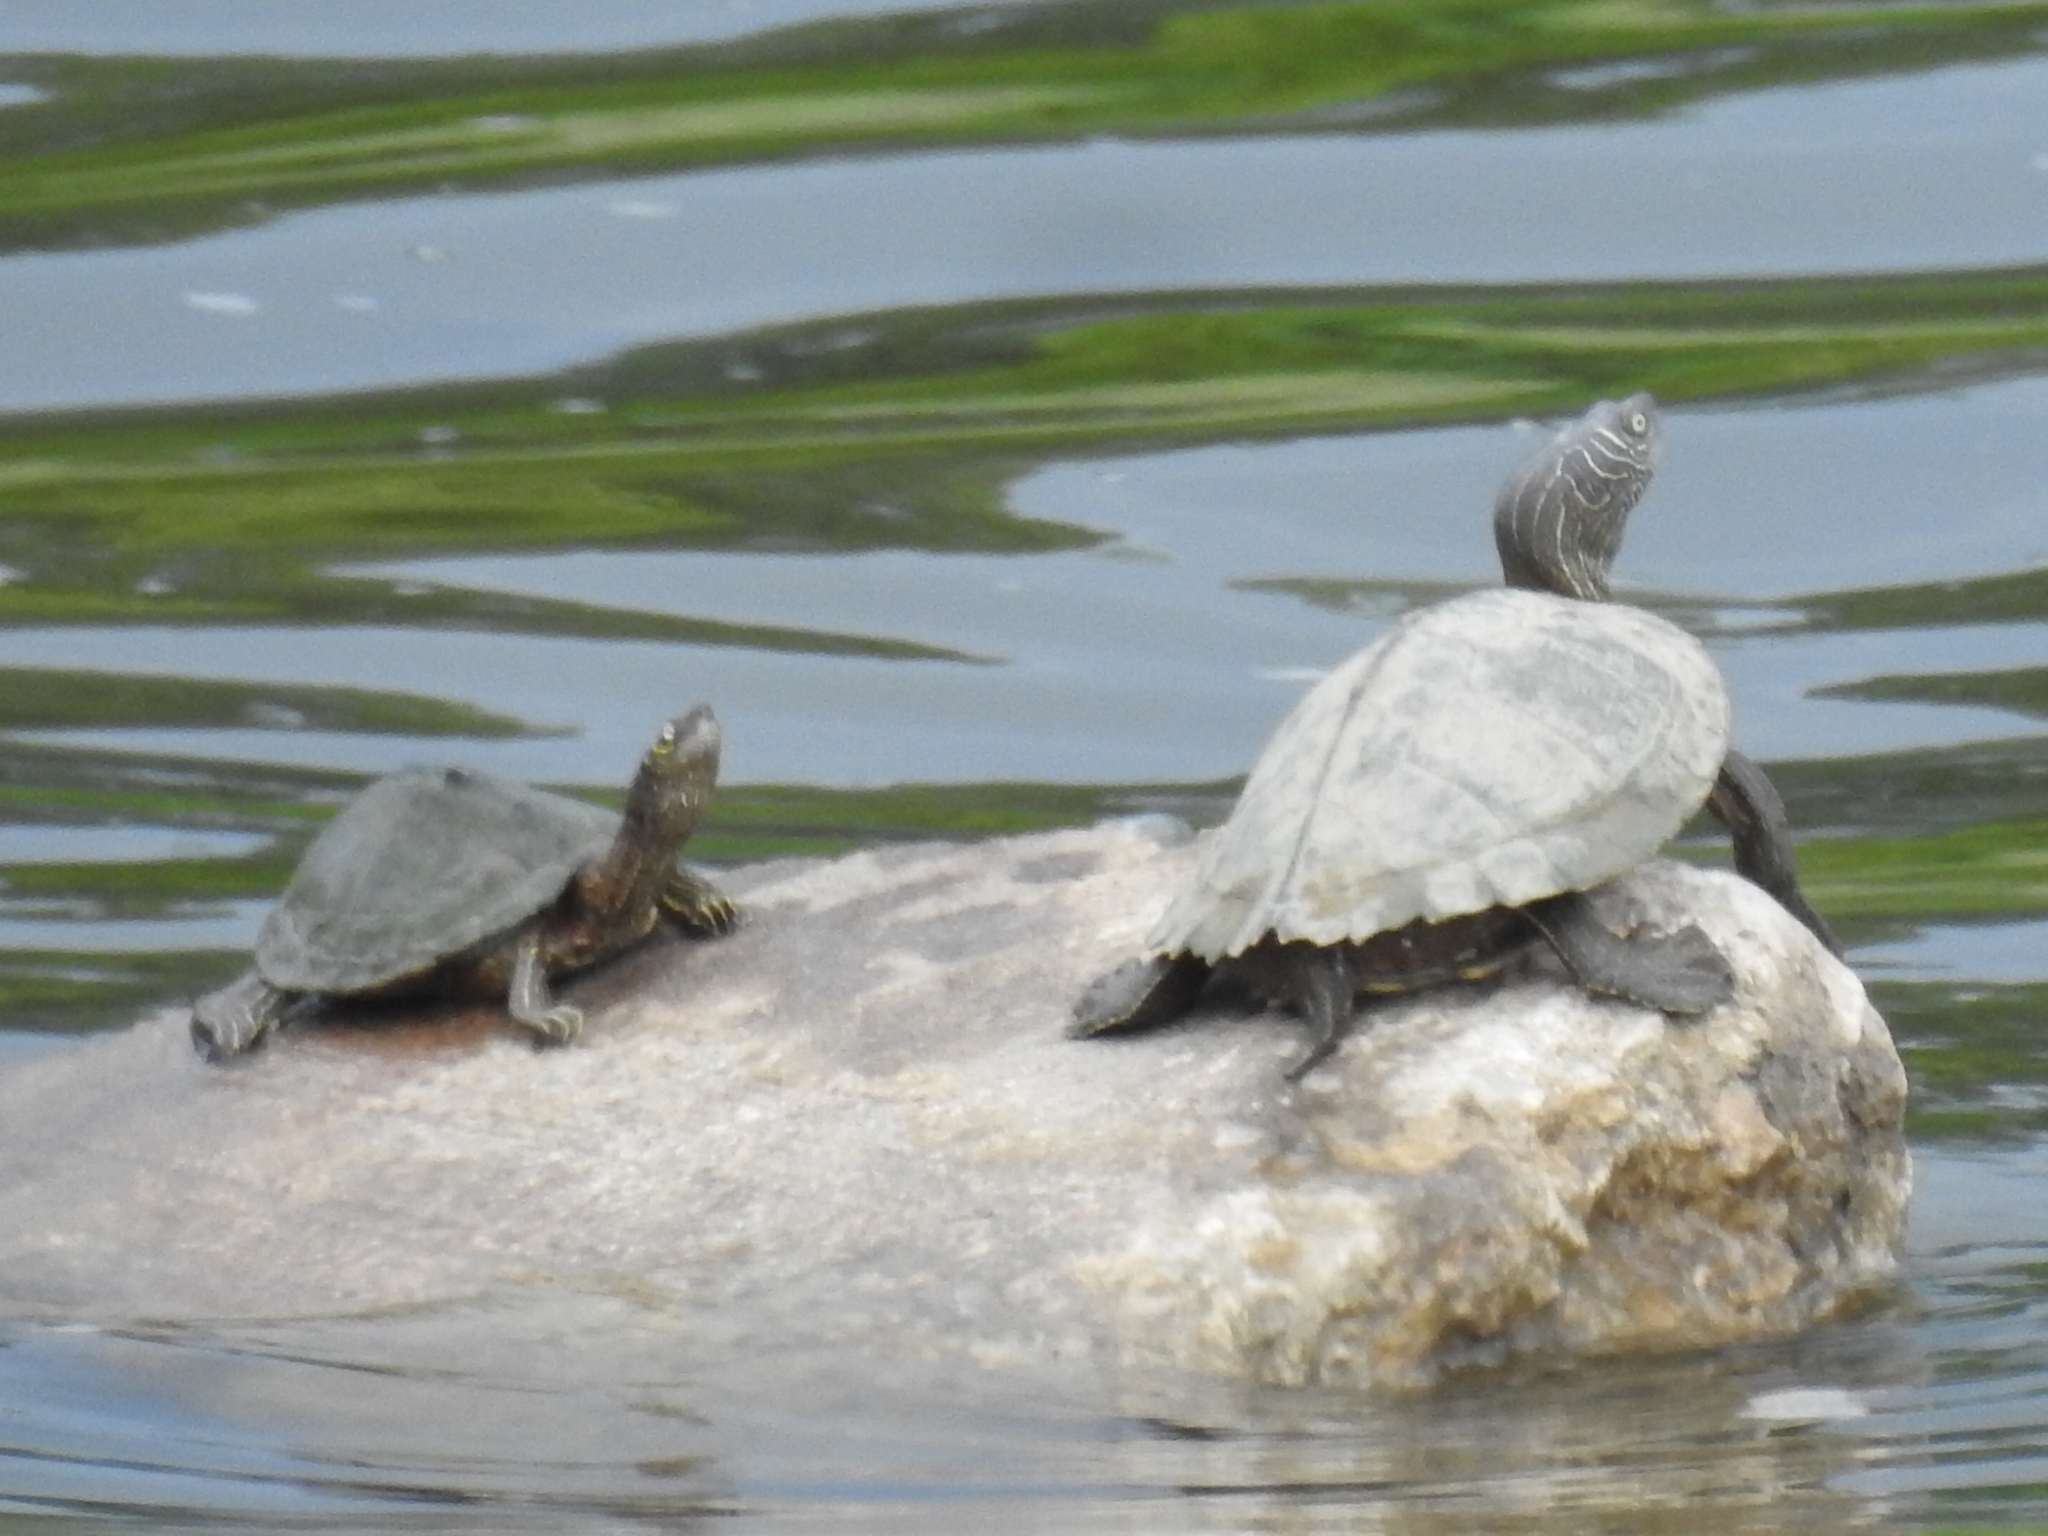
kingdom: Animalia
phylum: Chordata
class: Testudines
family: Emydidae
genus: Graptemys
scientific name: Graptemys pseudogeographica
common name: False map turtle
